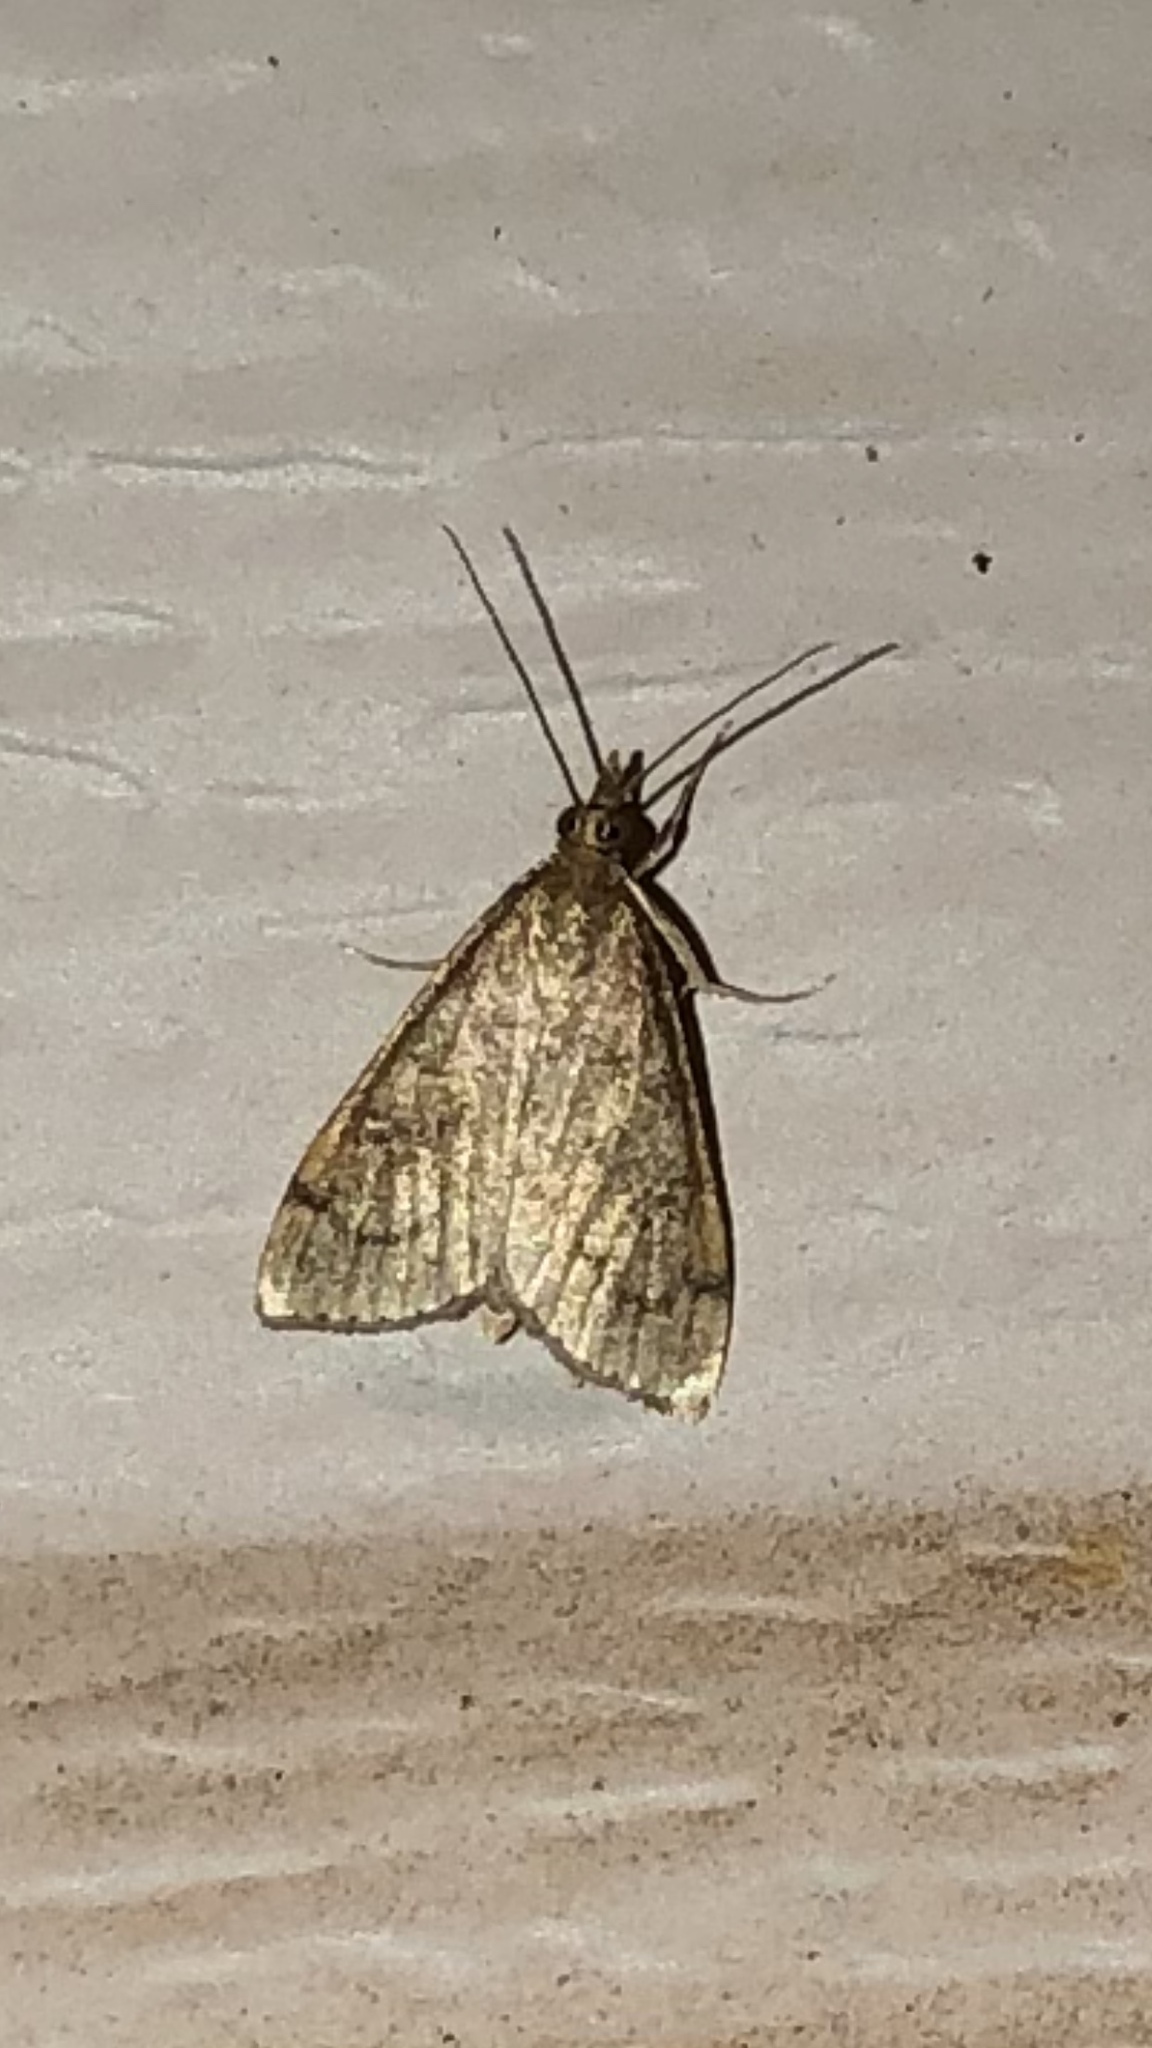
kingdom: Animalia
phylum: Arthropoda
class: Insecta
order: Lepidoptera
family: Crambidae
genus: Udea
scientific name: Udea rubigalis
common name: Celery leaftier moth
